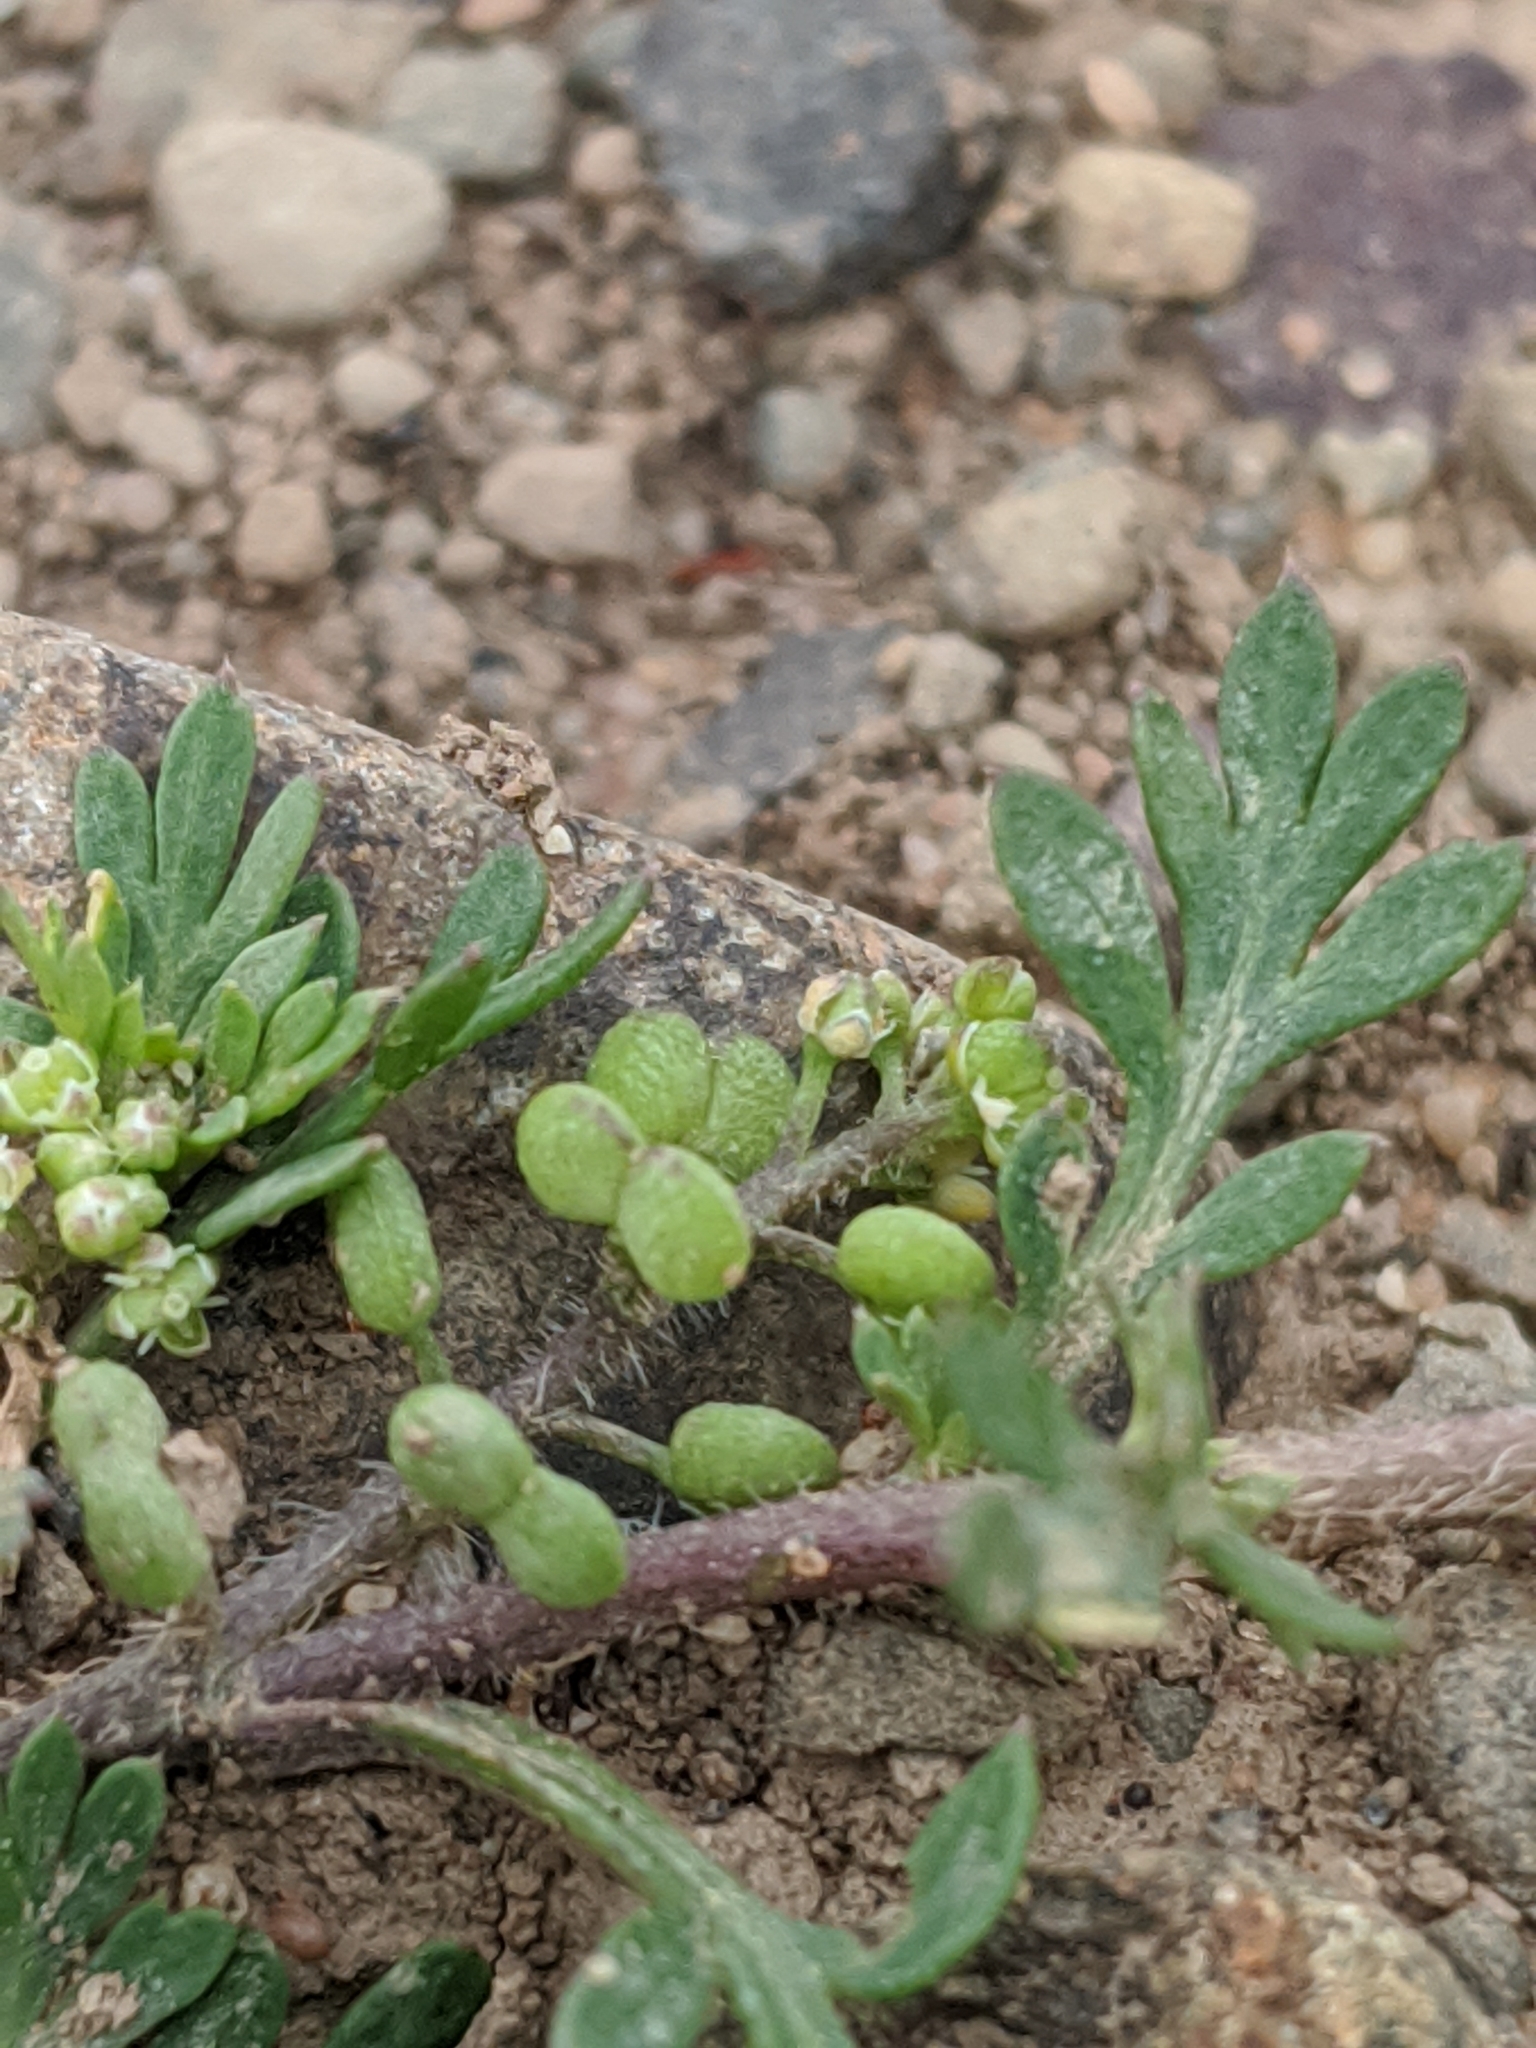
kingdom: Plantae
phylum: Tracheophyta
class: Magnoliopsida
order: Brassicales
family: Brassicaceae
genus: Lepidium
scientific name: Lepidium didymum
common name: Lesser swinecress
